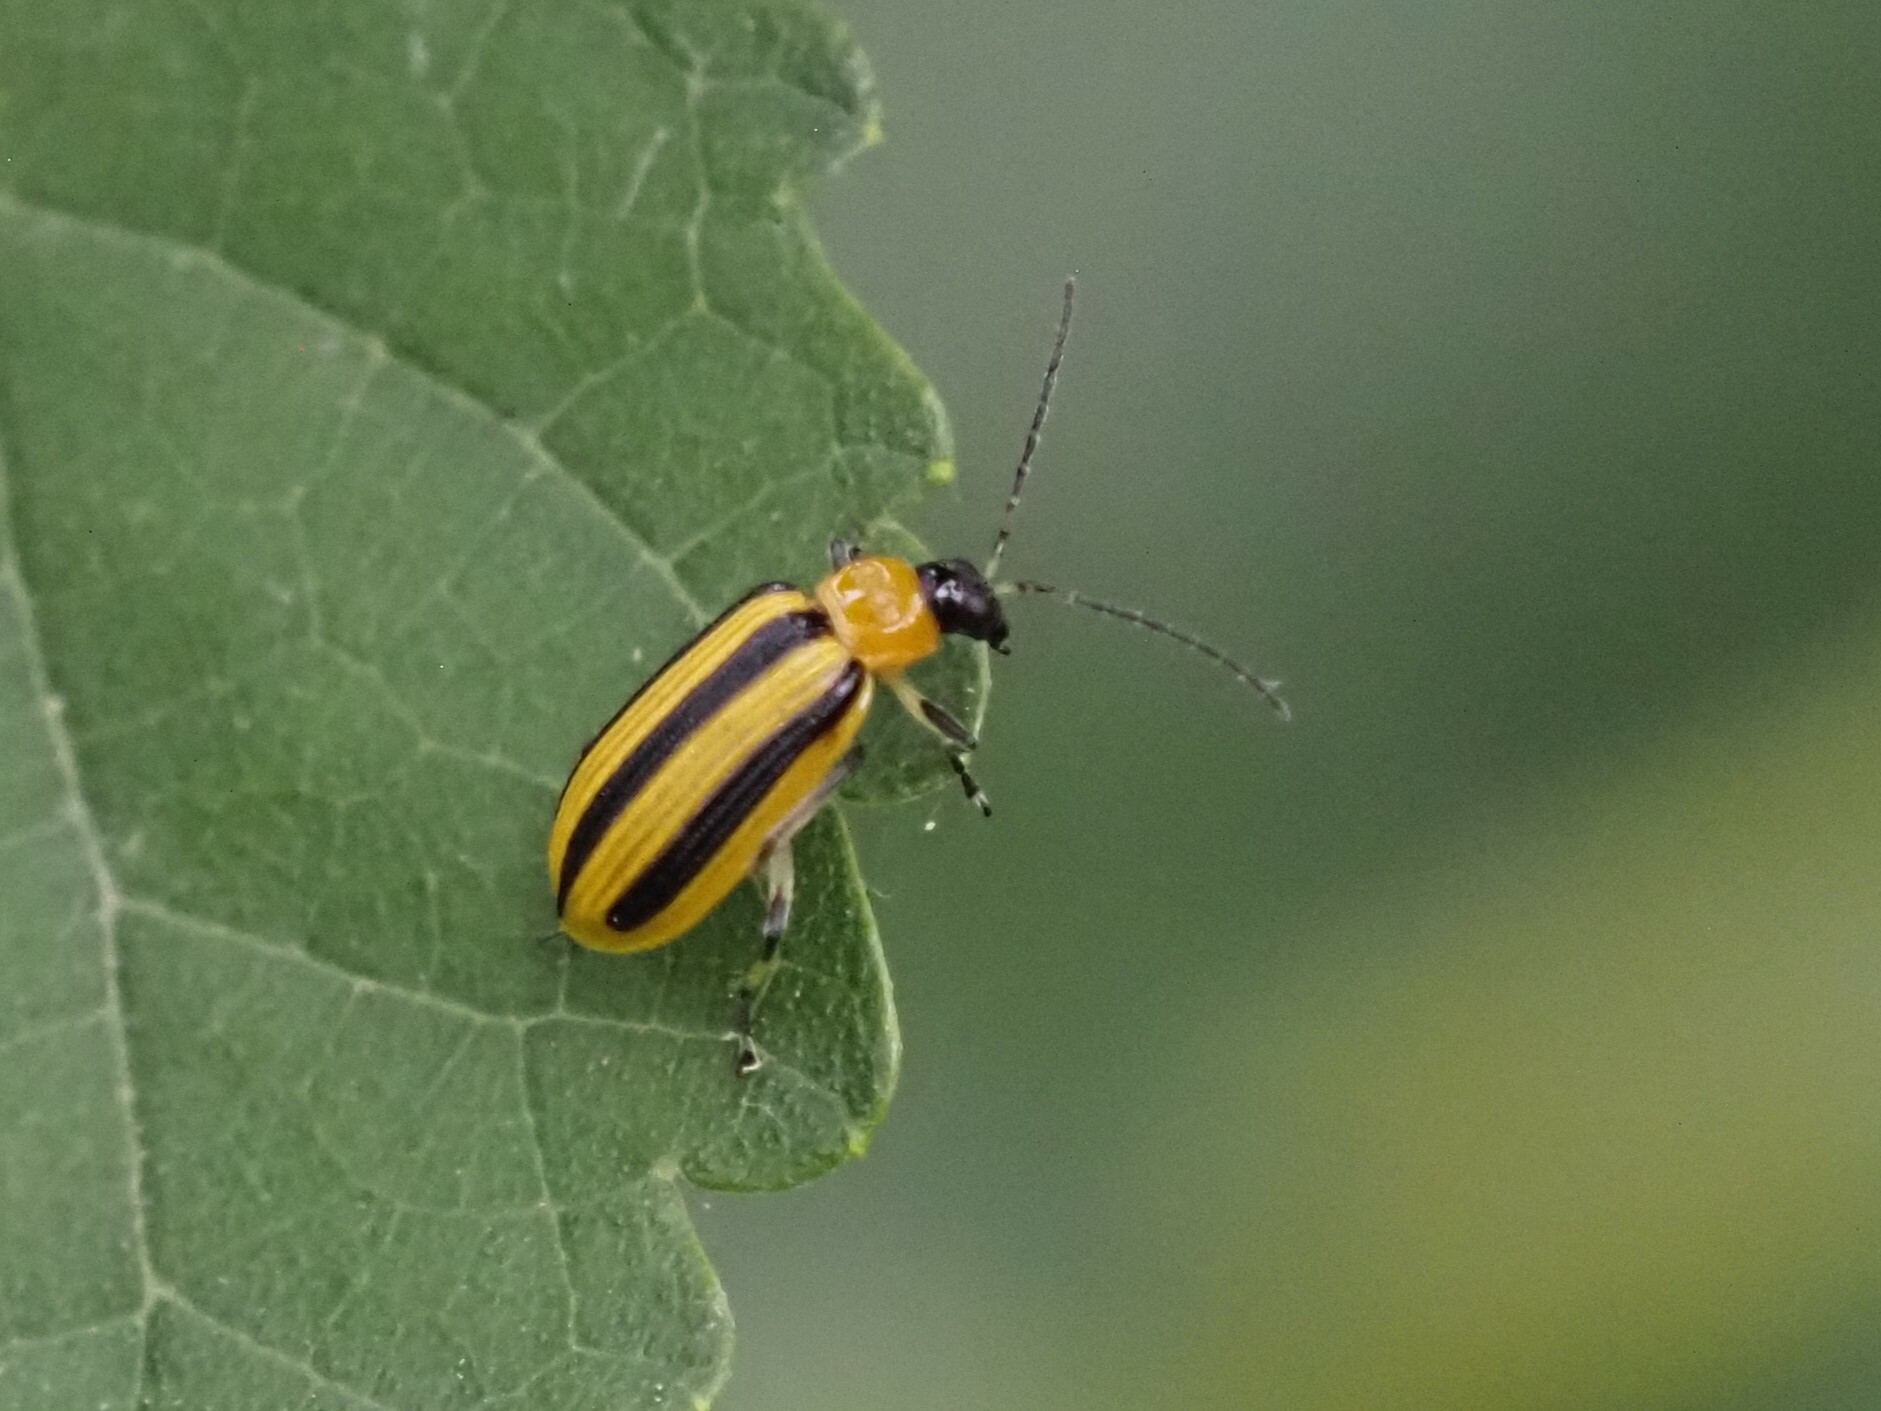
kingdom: Animalia
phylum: Arthropoda
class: Insecta
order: Coleoptera
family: Chrysomelidae
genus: Acalymma
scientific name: Acalymma vittatum
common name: Striped cucumber beetle
